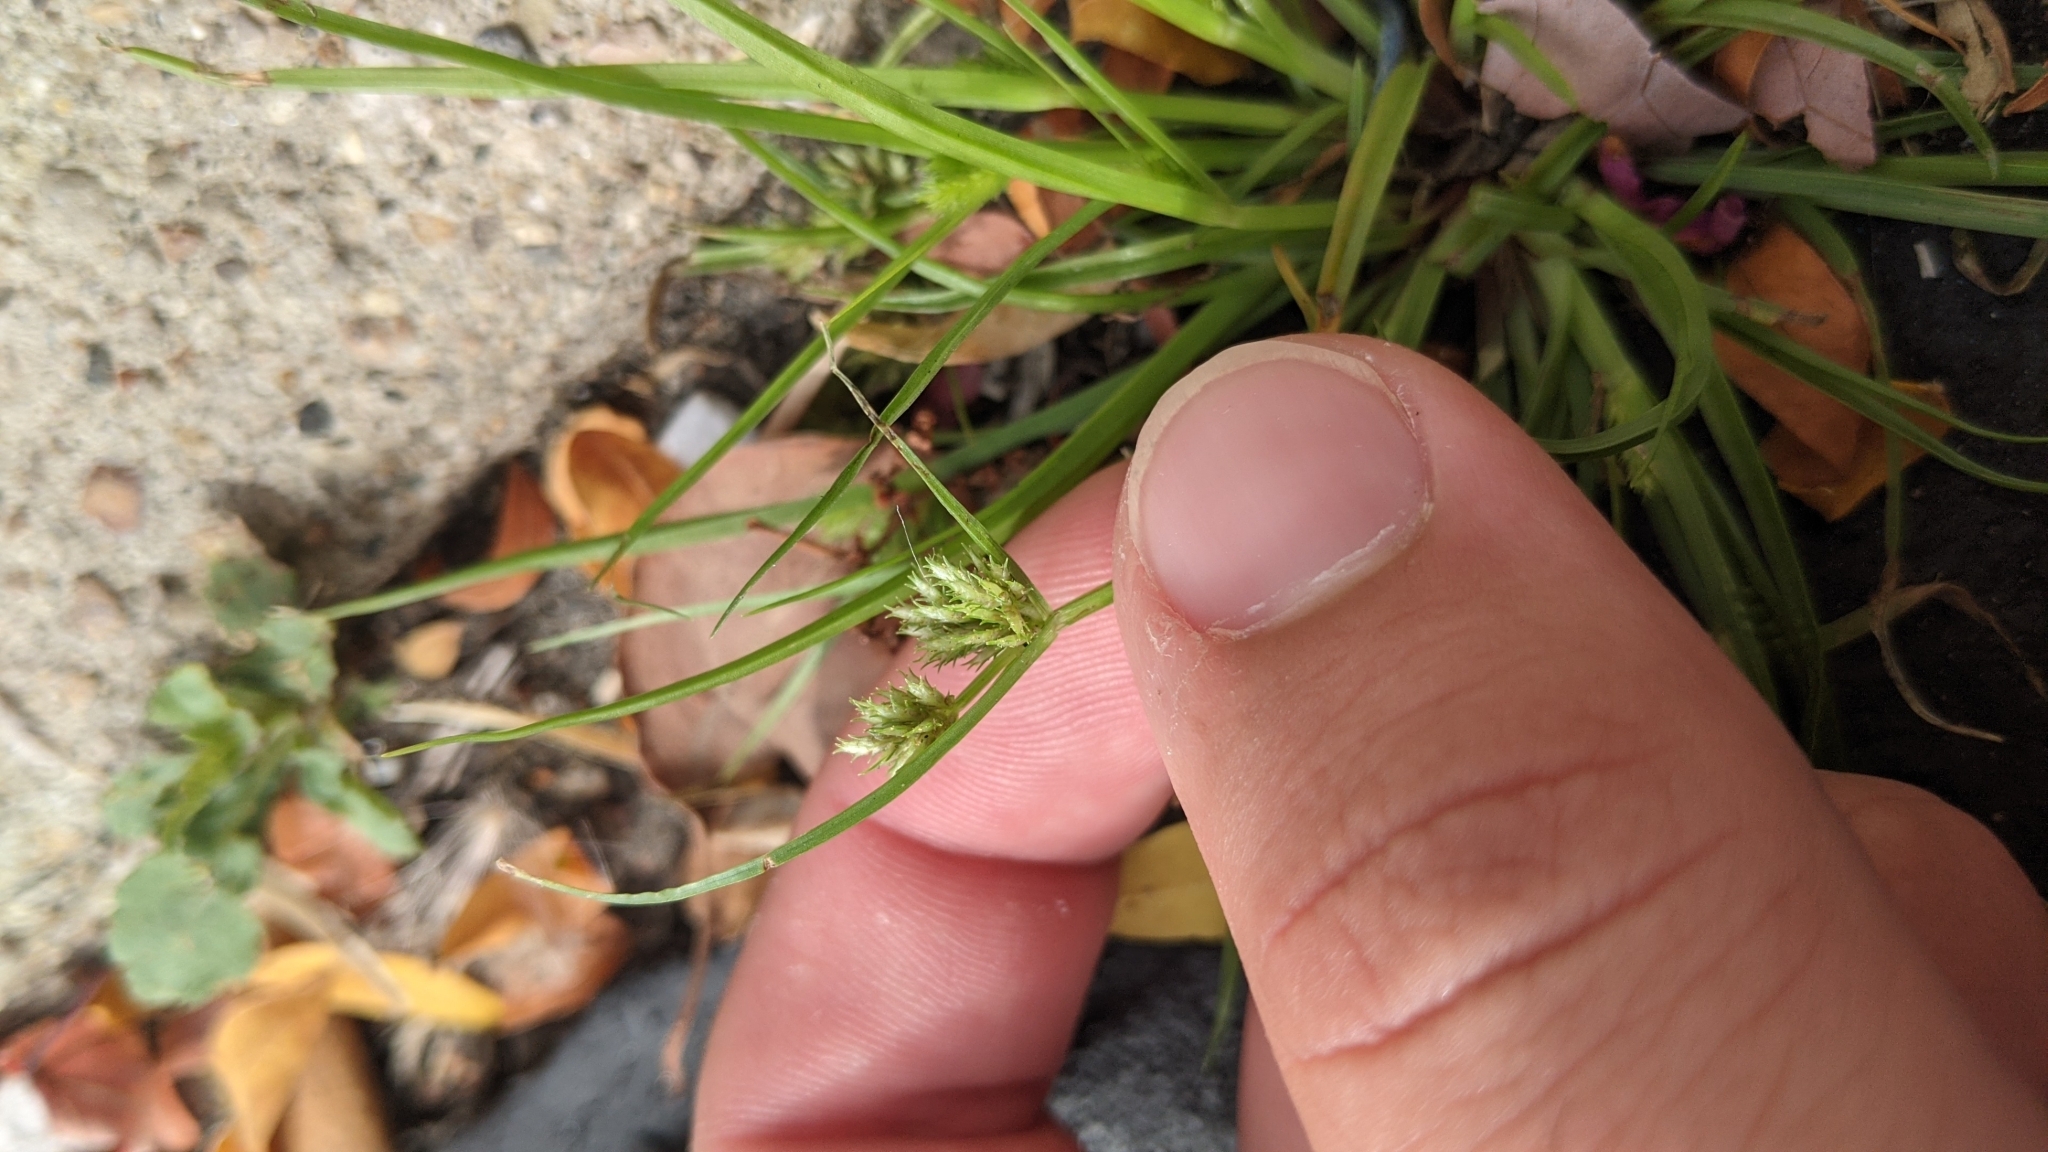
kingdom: Plantae
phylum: Tracheophyta
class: Liliopsida
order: Poales
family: Cyperaceae
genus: Cyperus
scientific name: Cyperus squarrosus
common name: Awned cyperus
